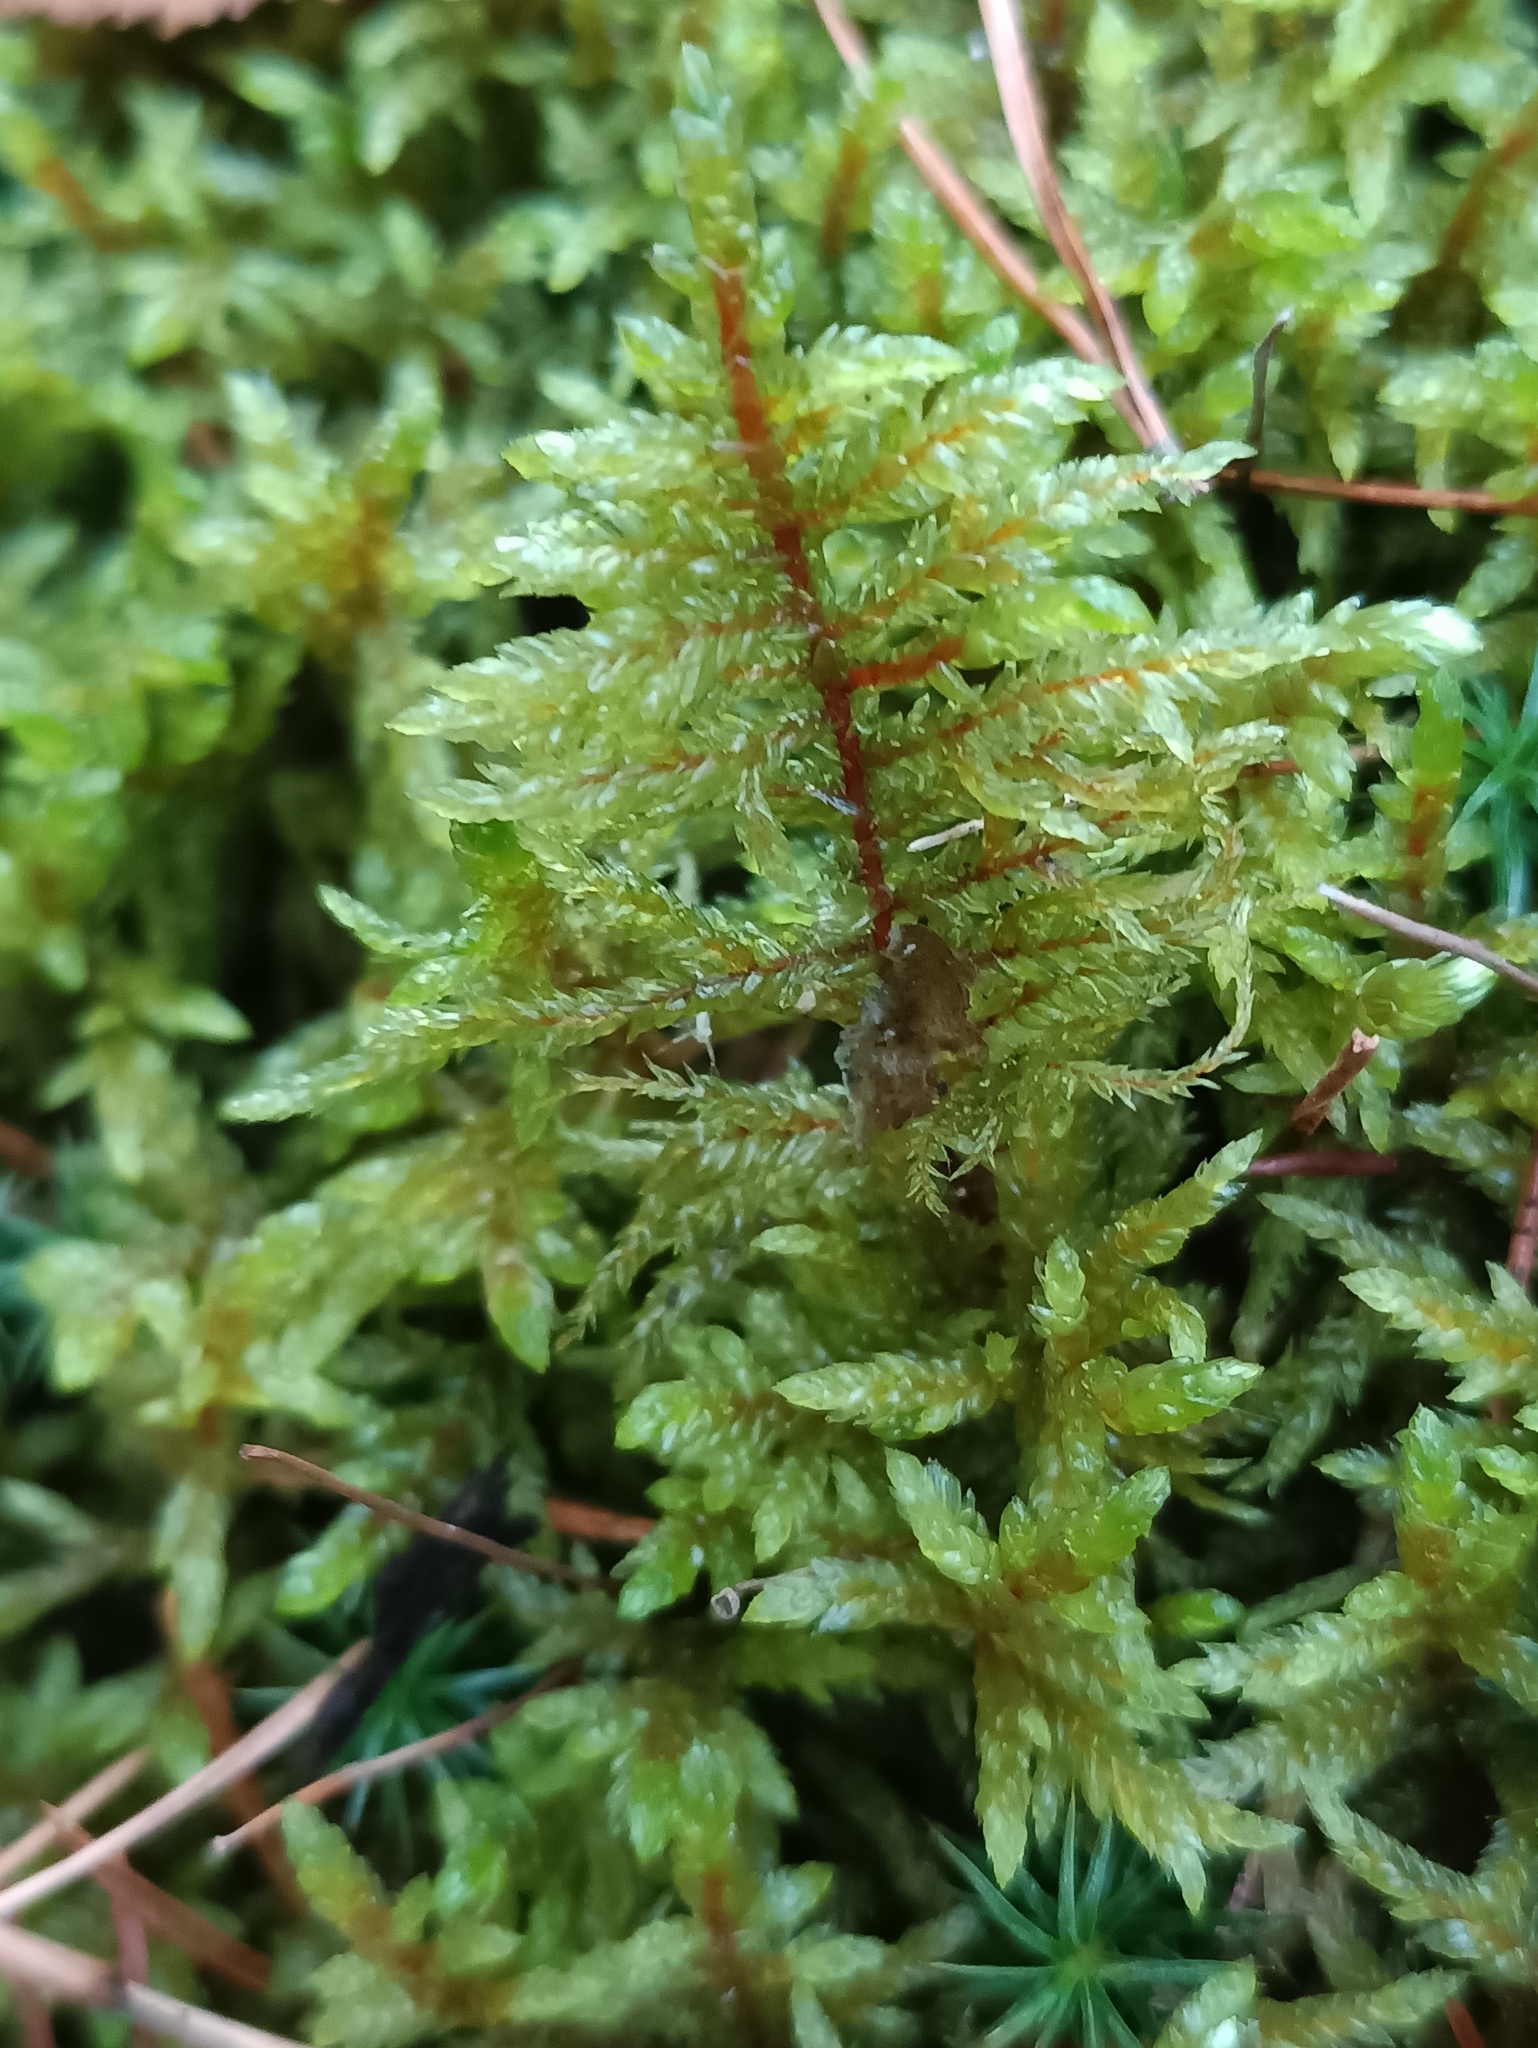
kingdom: Plantae
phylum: Bryophyta
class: Bryopsida
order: Hypnales
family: Hylocomiaceae
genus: Pleurozium
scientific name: Pleurozium schreberi
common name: Red-stemmed feather moss
